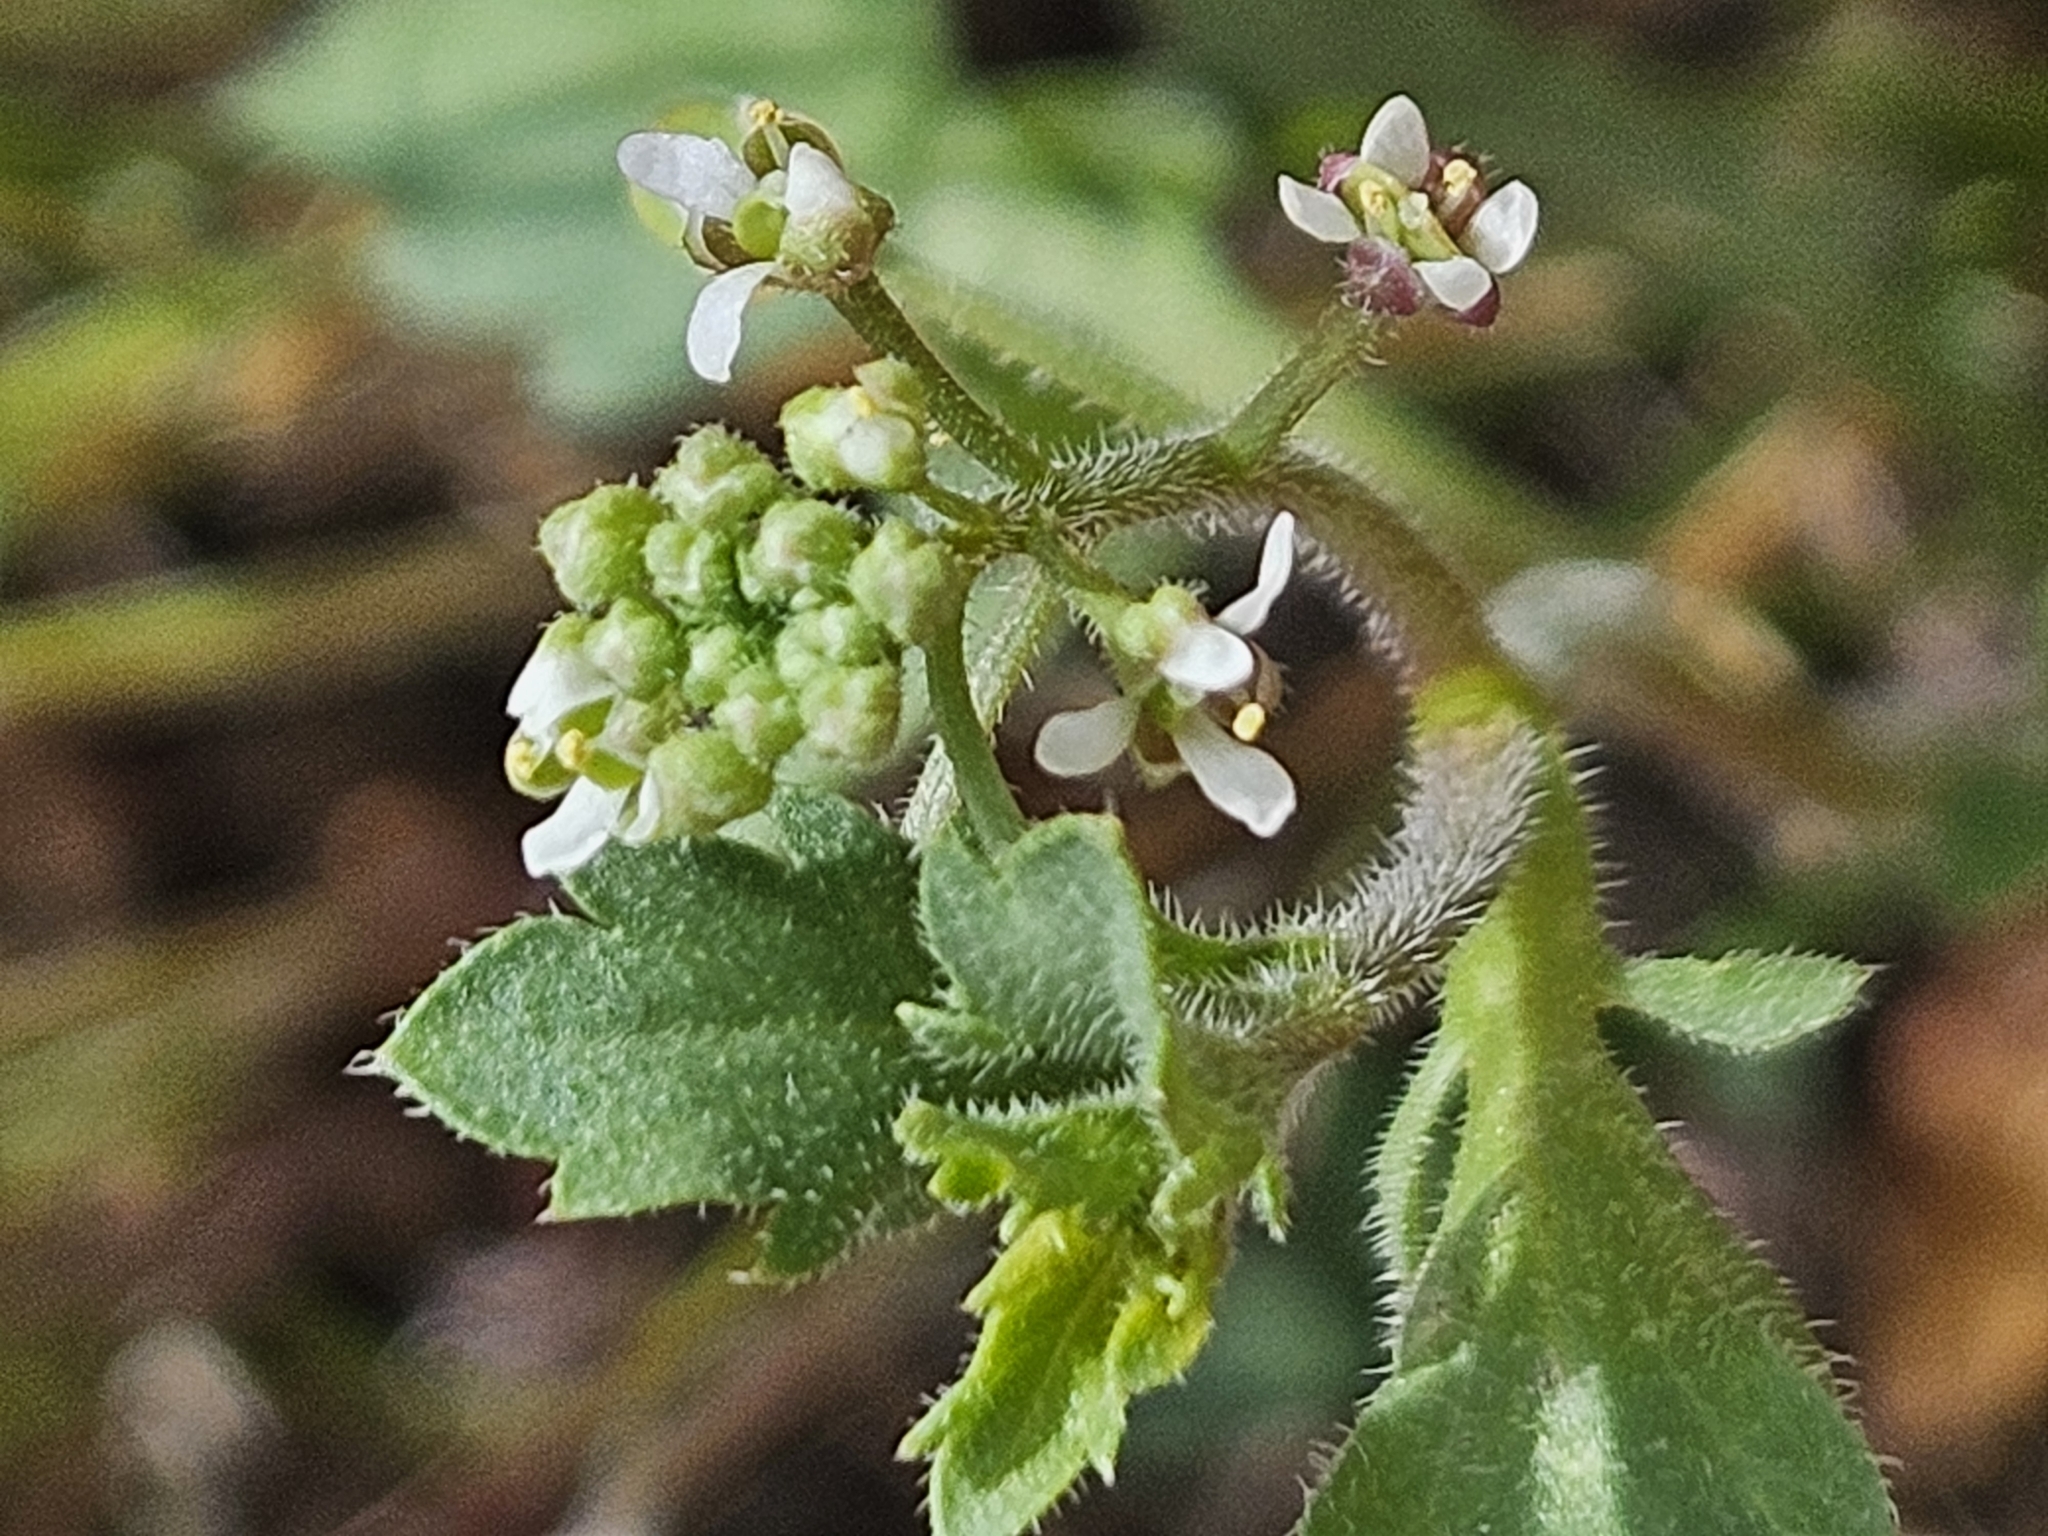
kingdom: Plantae
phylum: Tracheophyta
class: Magnoliopsida
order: Brassicales
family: Brassicaceae
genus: Lepidium
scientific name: Lepidium lasiocarpum
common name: Hairy-pod pepperwort
